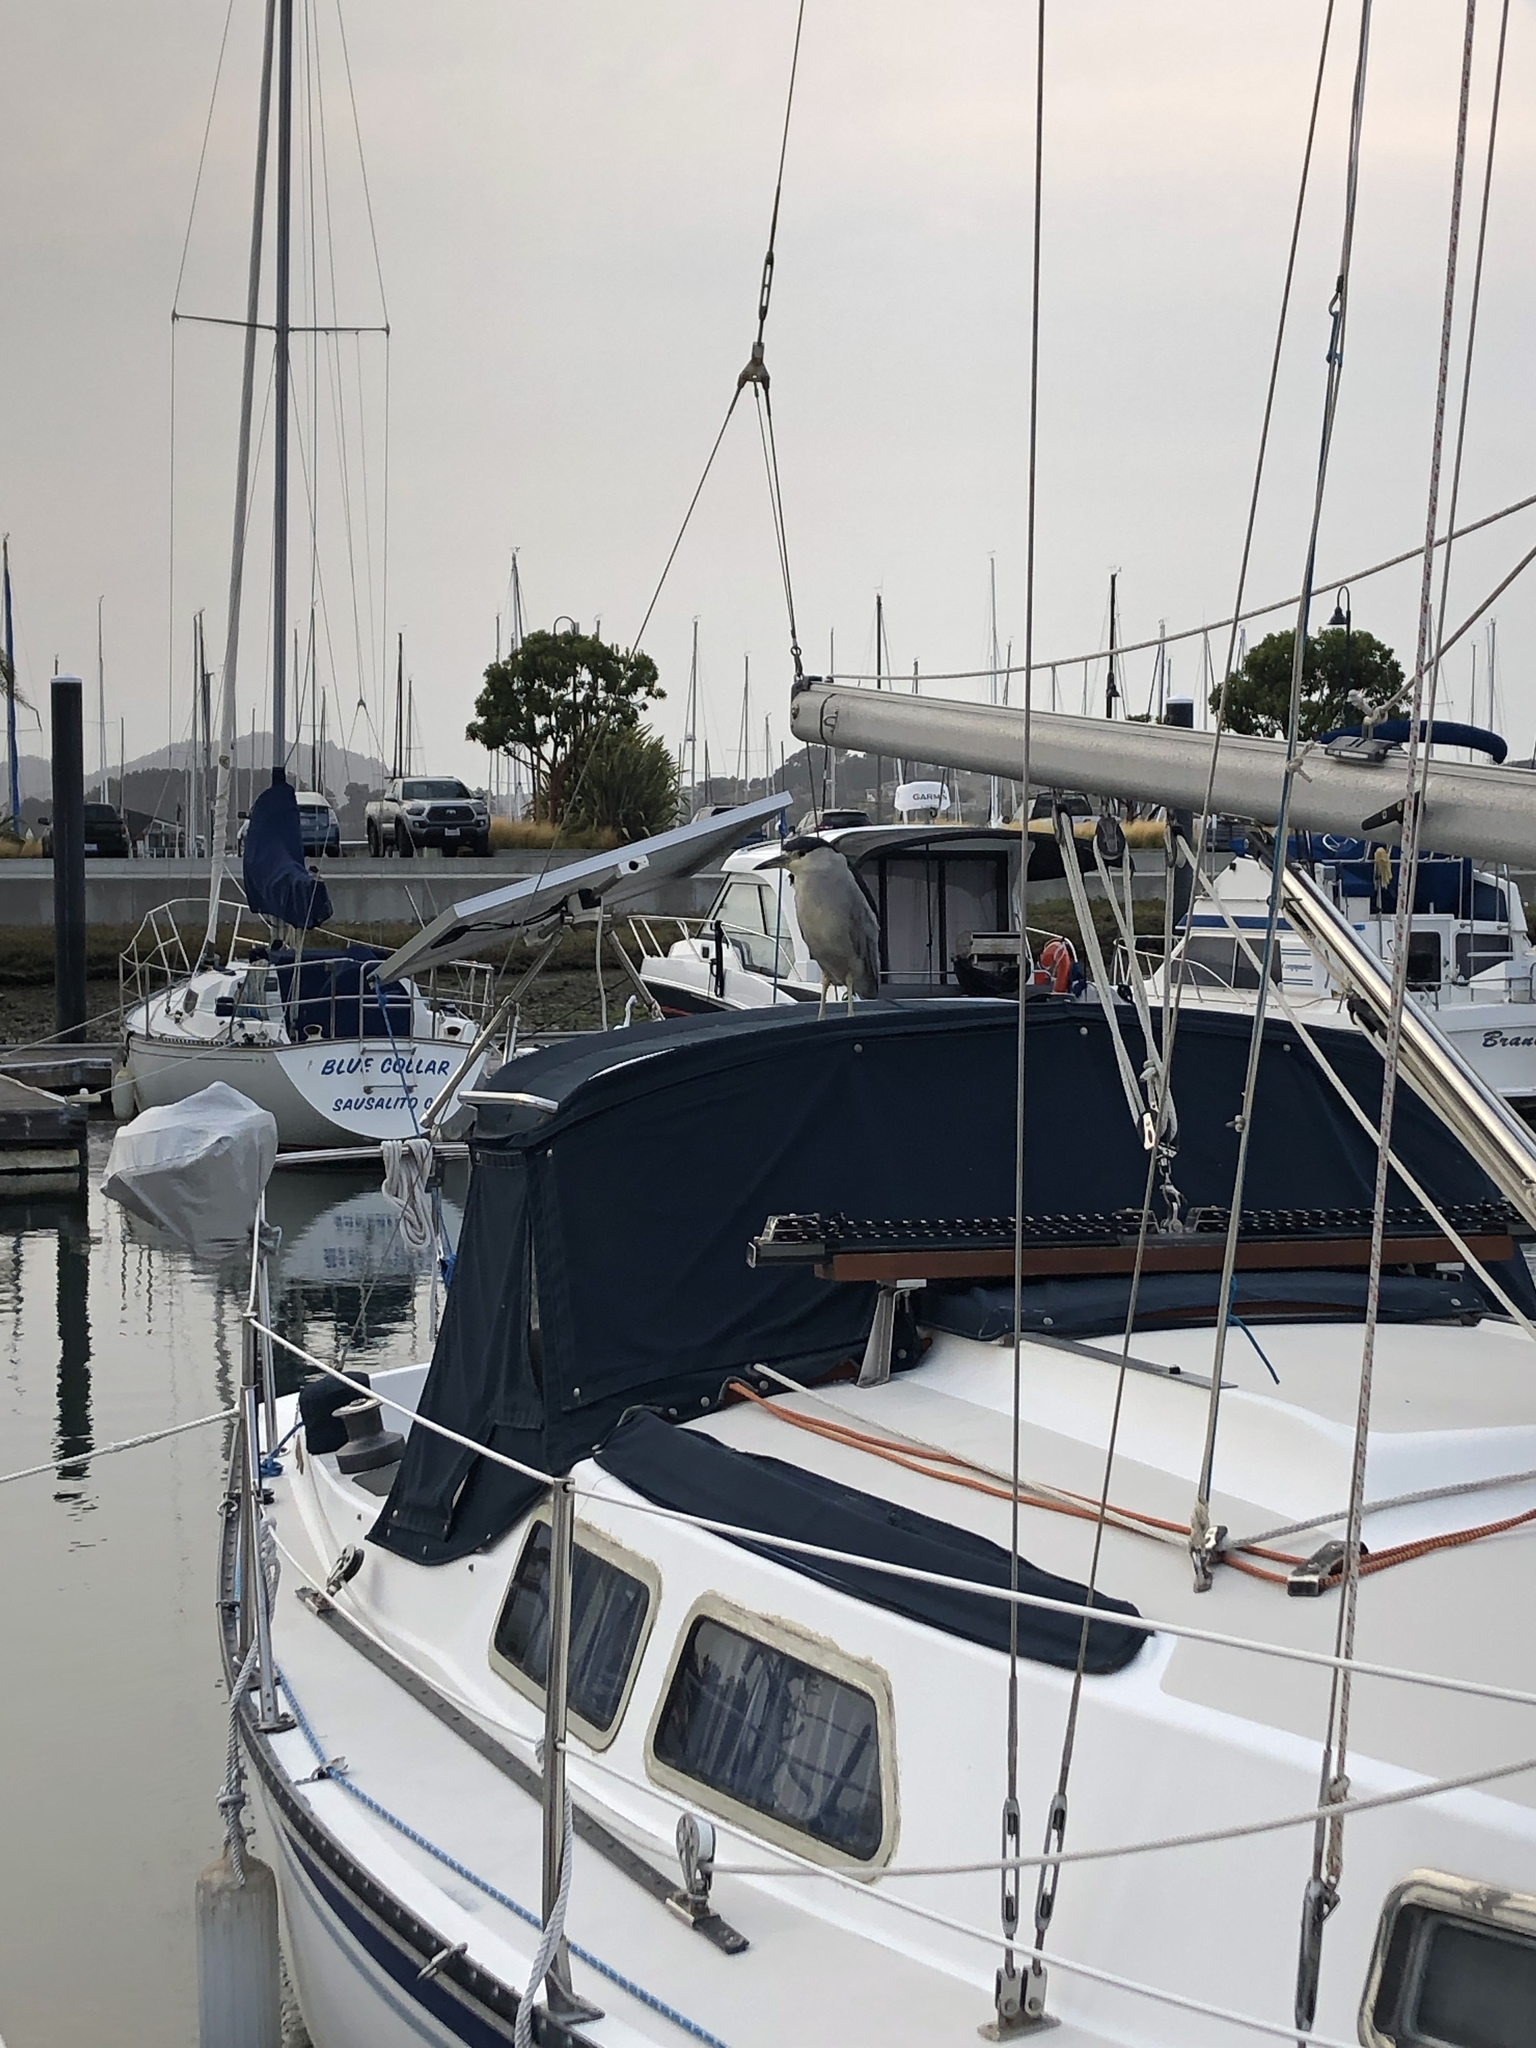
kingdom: Animalia
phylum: Chordata
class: Aves
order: Pelecaniformes
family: Ardeidae
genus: Nycticorax
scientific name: Nycticorax nycticorax
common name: Black-crowned night heron
